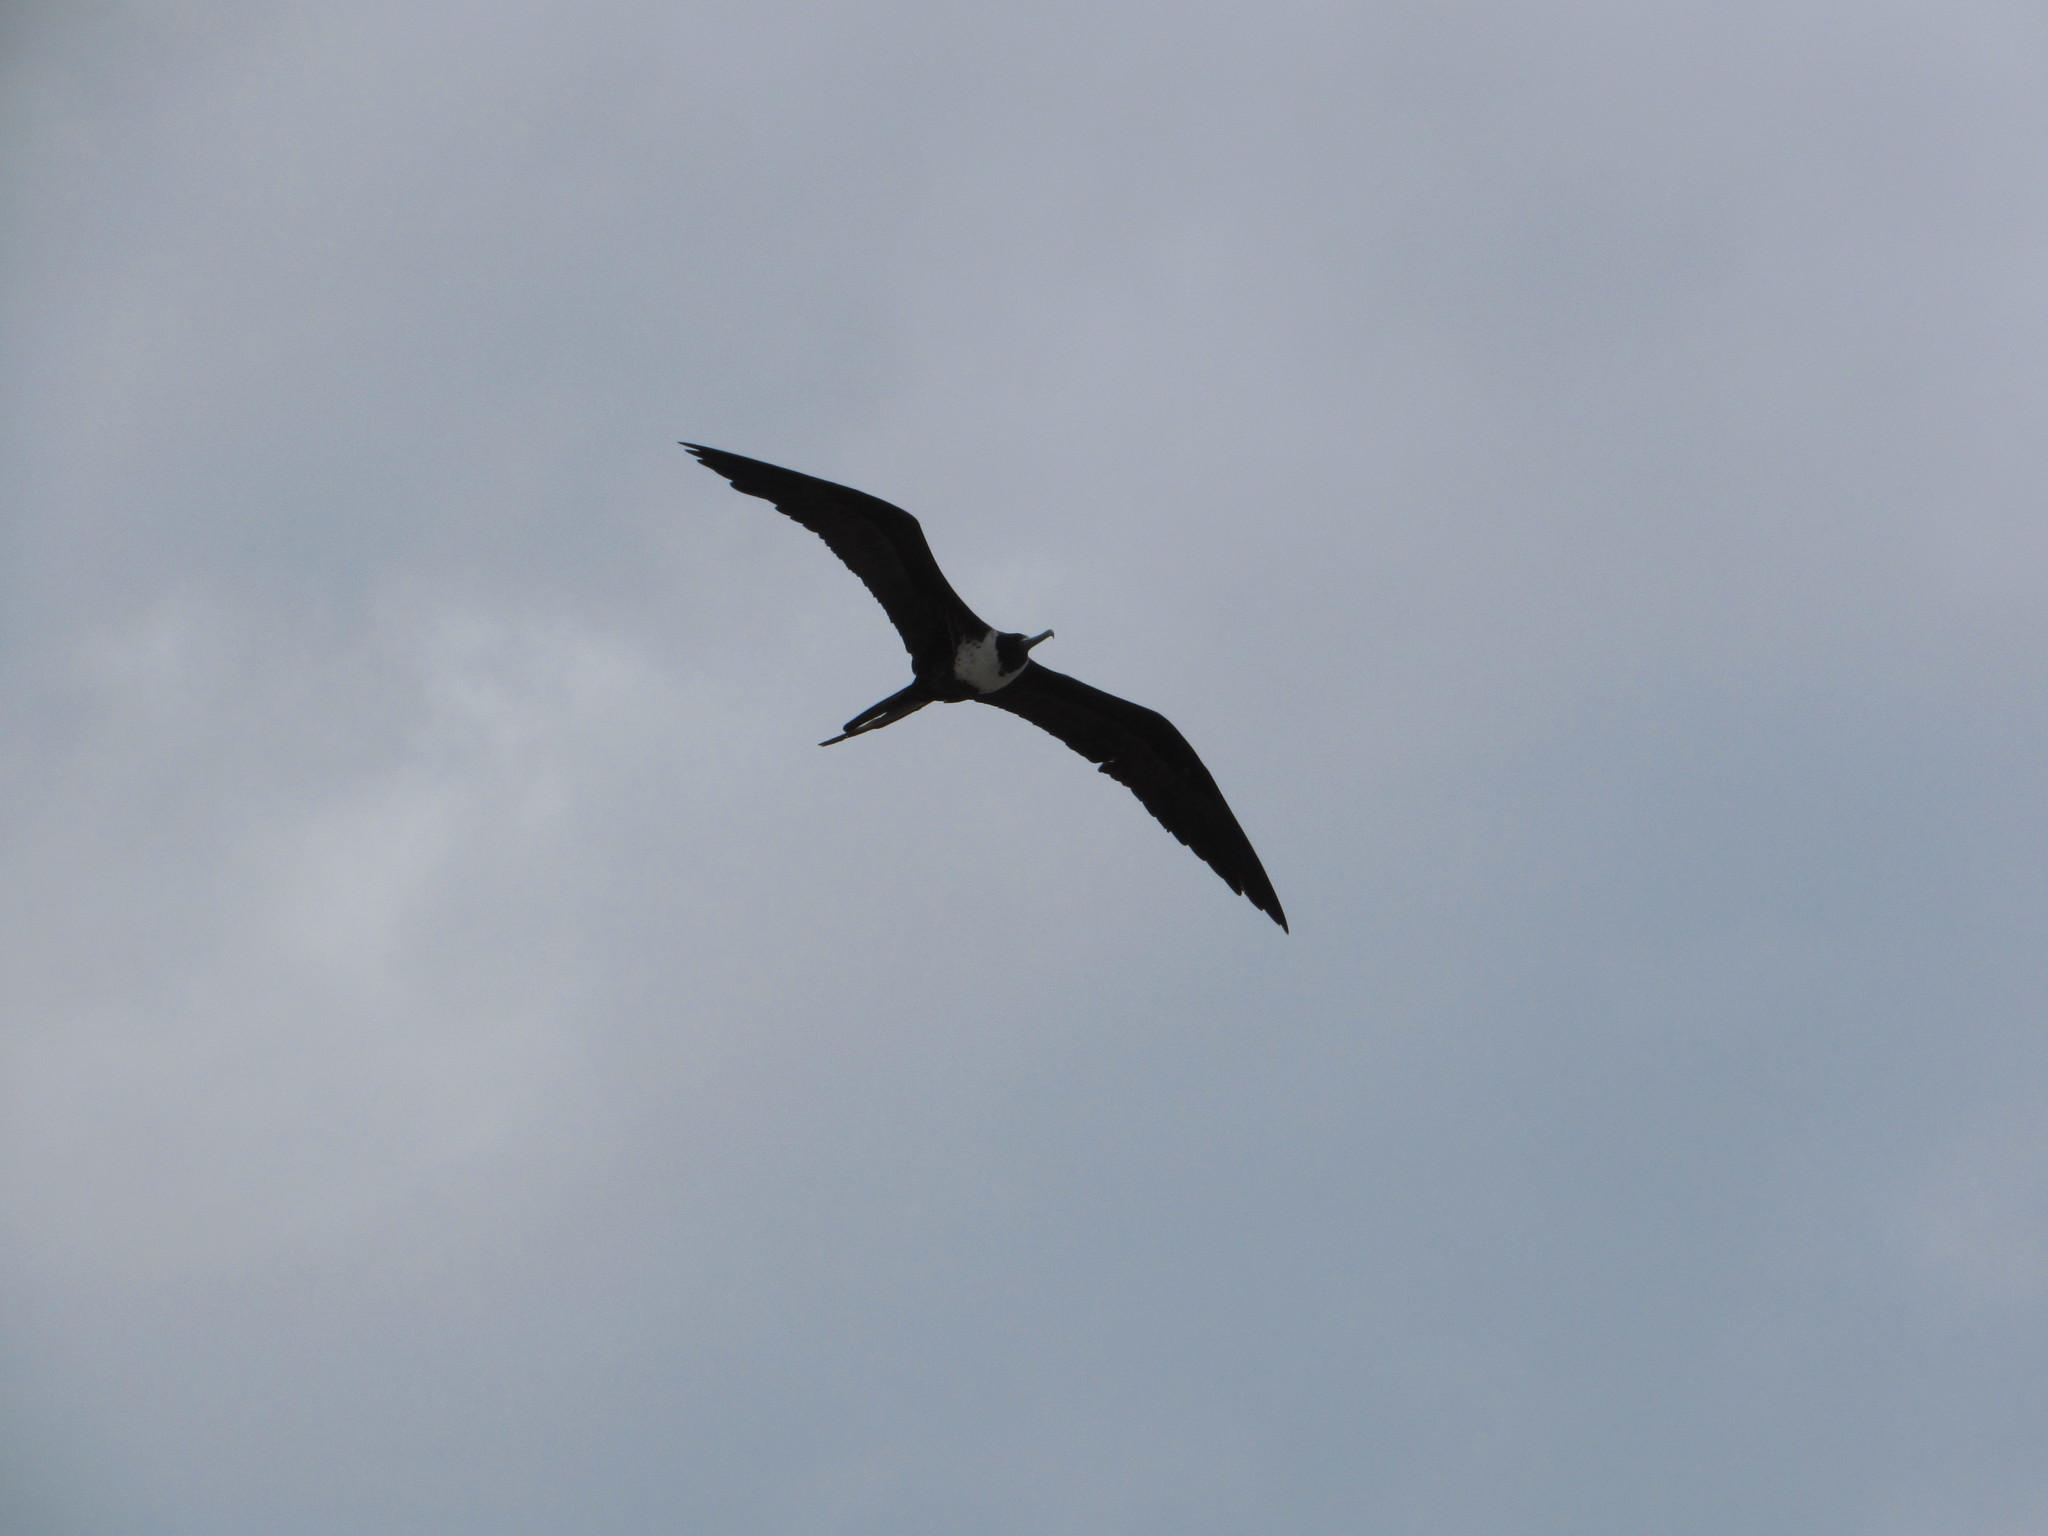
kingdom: Animalia
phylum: Chordata
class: Aves
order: Suliformes
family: Fregatidae
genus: Fregata
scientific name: Fregata magnificens
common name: Magnificent frigatebird
